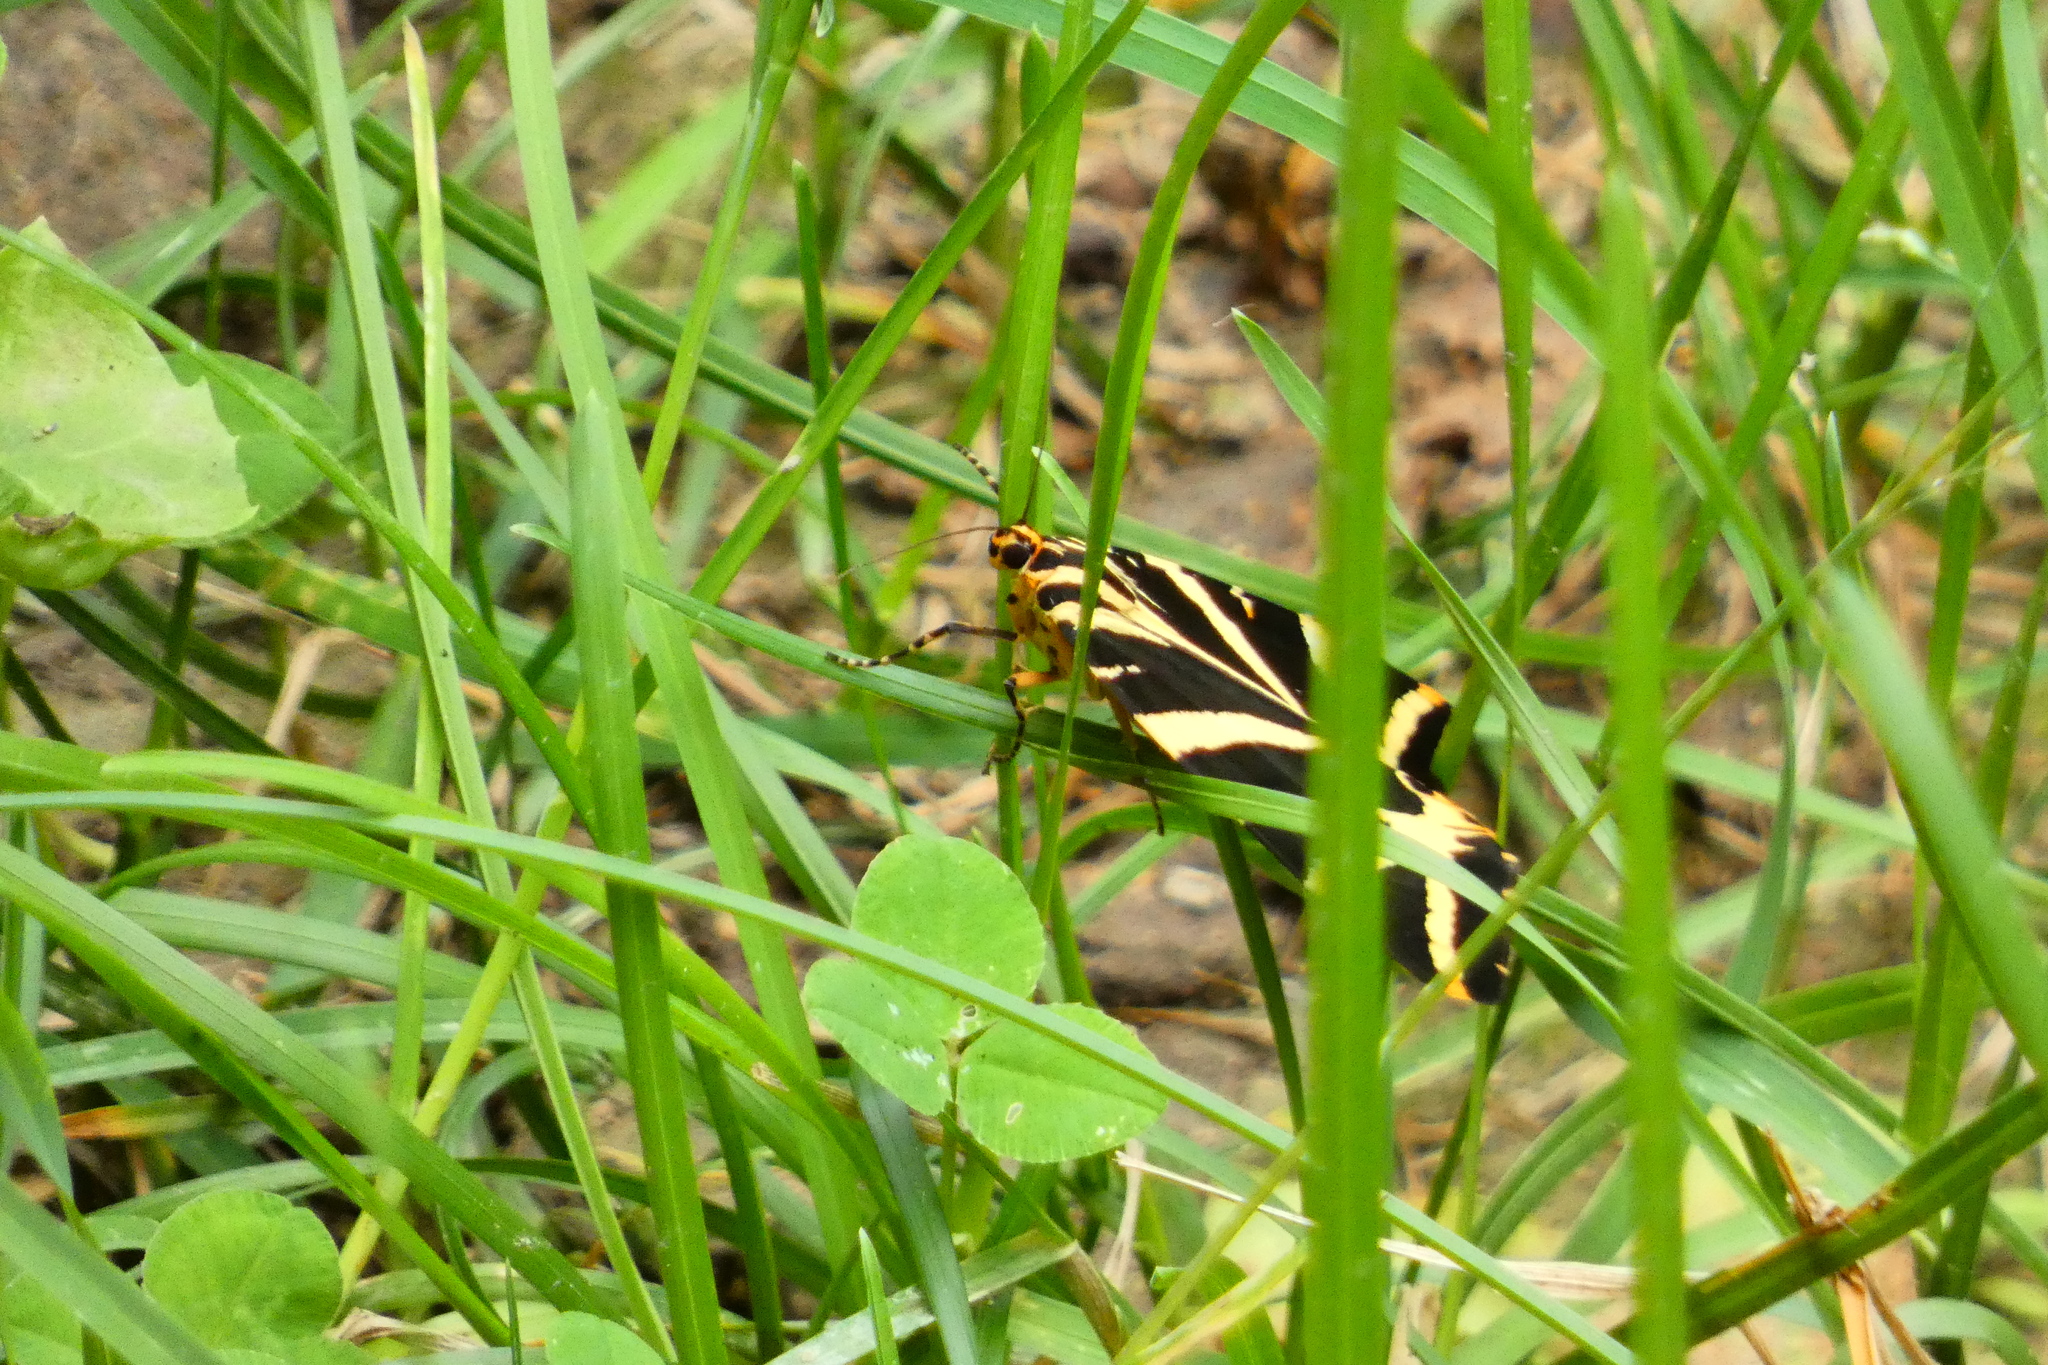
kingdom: Animalia
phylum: Arthropoda
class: Insecta
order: Lepidoptera
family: Erebidae
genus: Euplagia
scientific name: Euplagia quadripunctaria
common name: Jersey tiger
